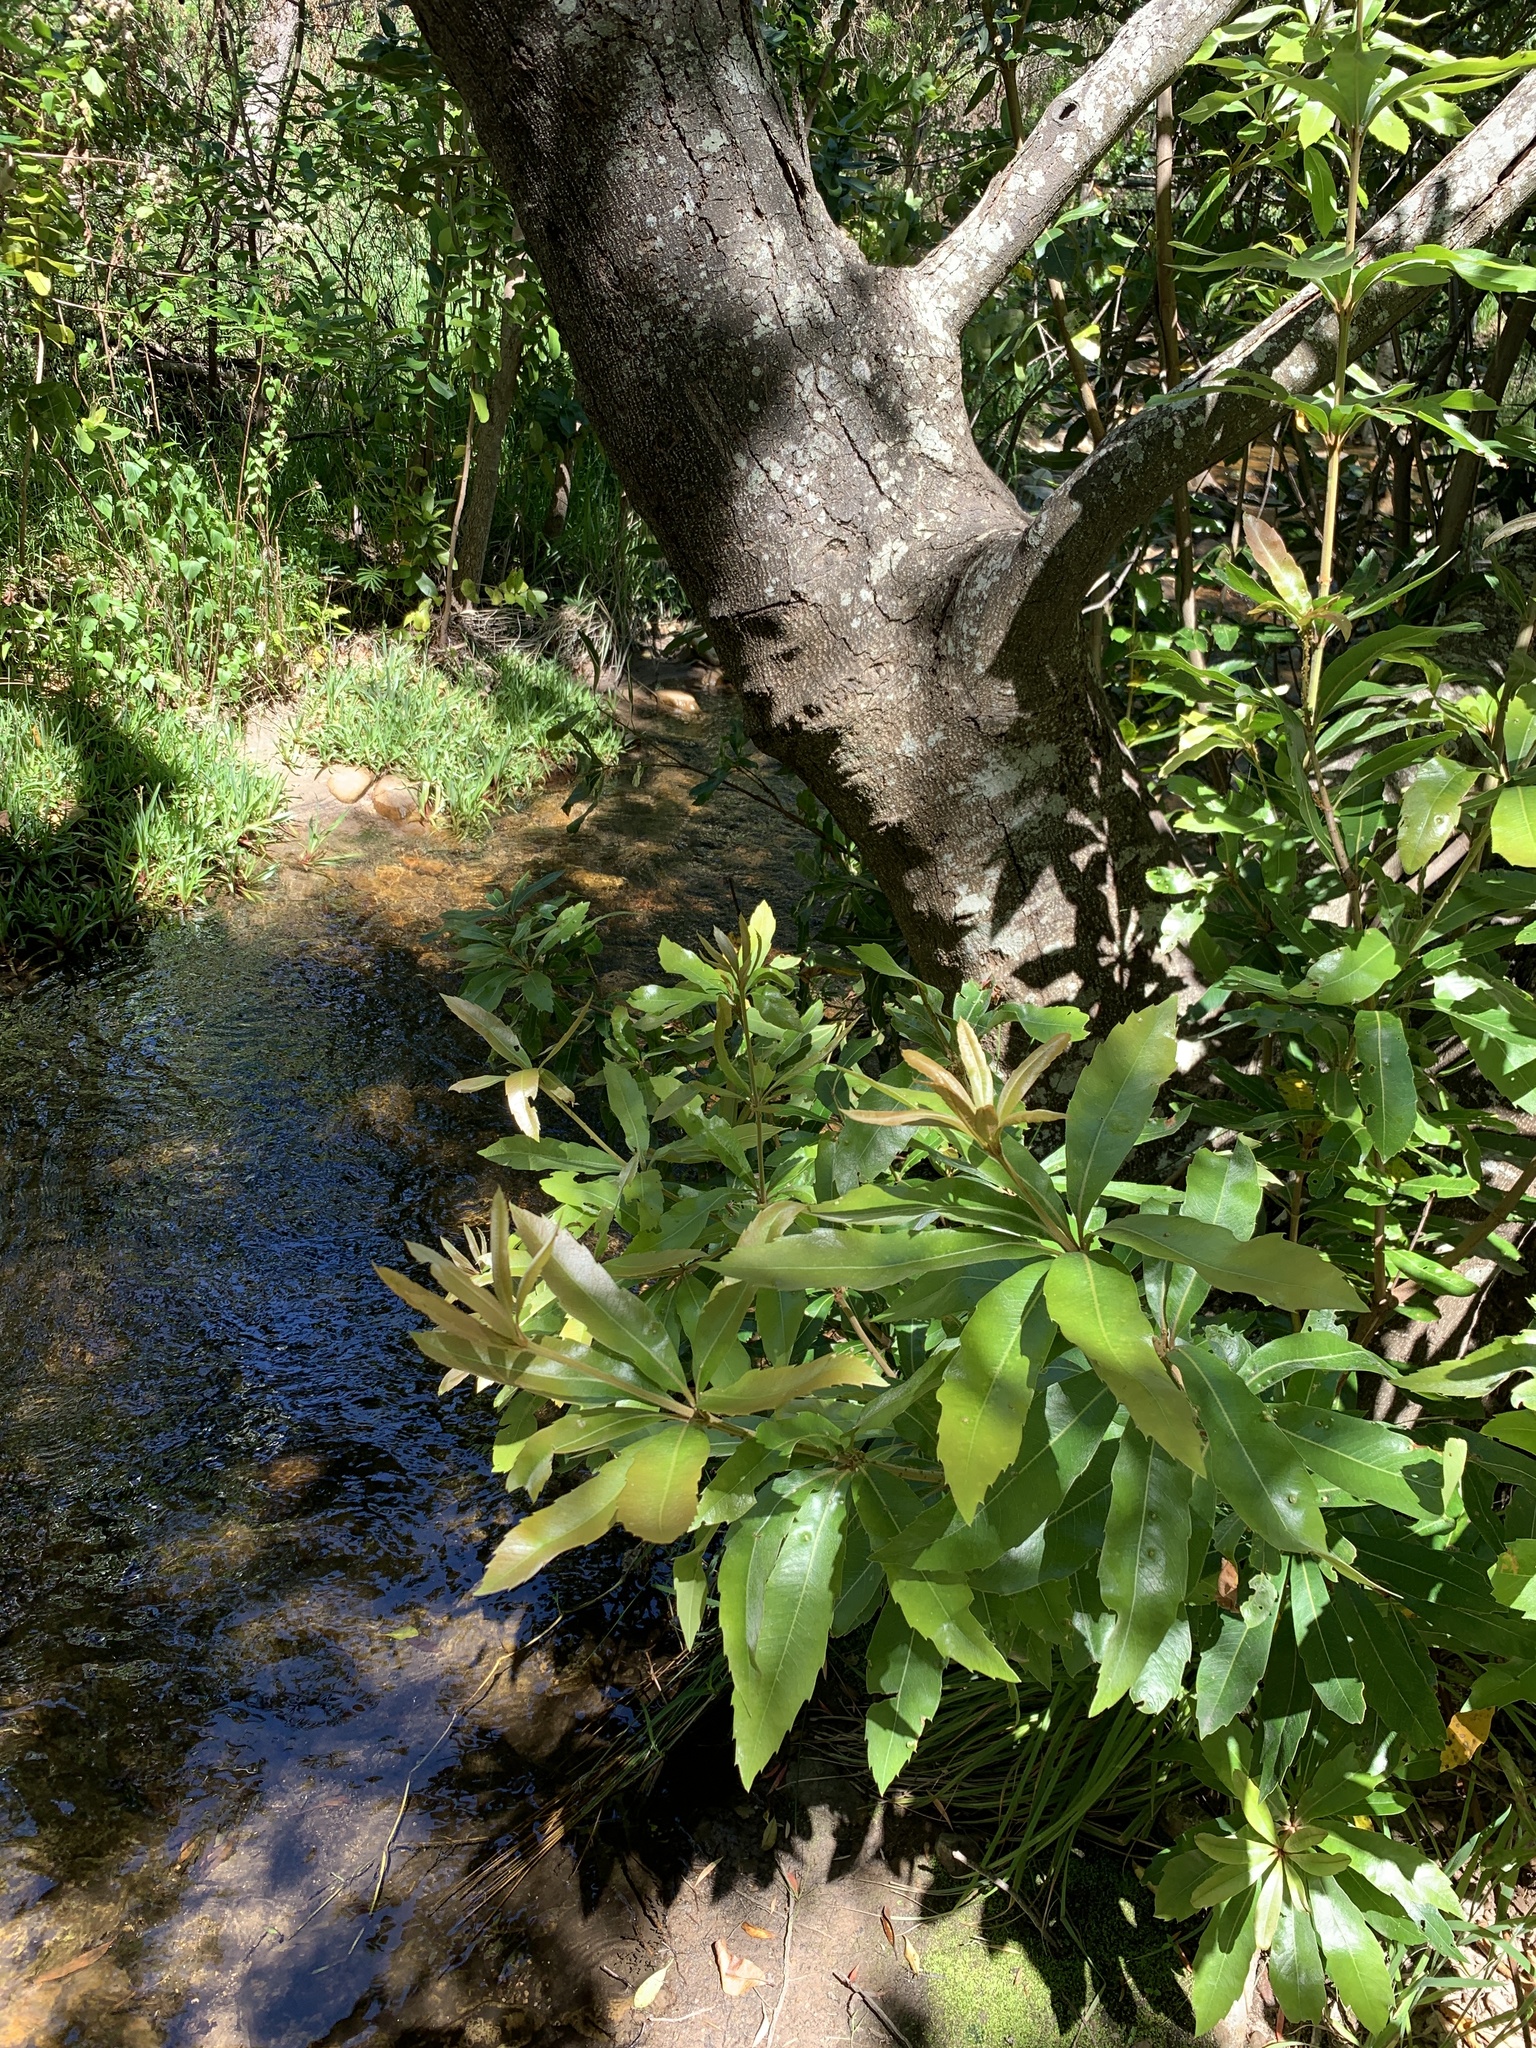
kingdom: Plantae
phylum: Tracheophyta
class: Magnoliopsida
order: Proteales
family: Proteaceae
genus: Brabejum
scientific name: Brabejum stellatifolium
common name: Wild almond
